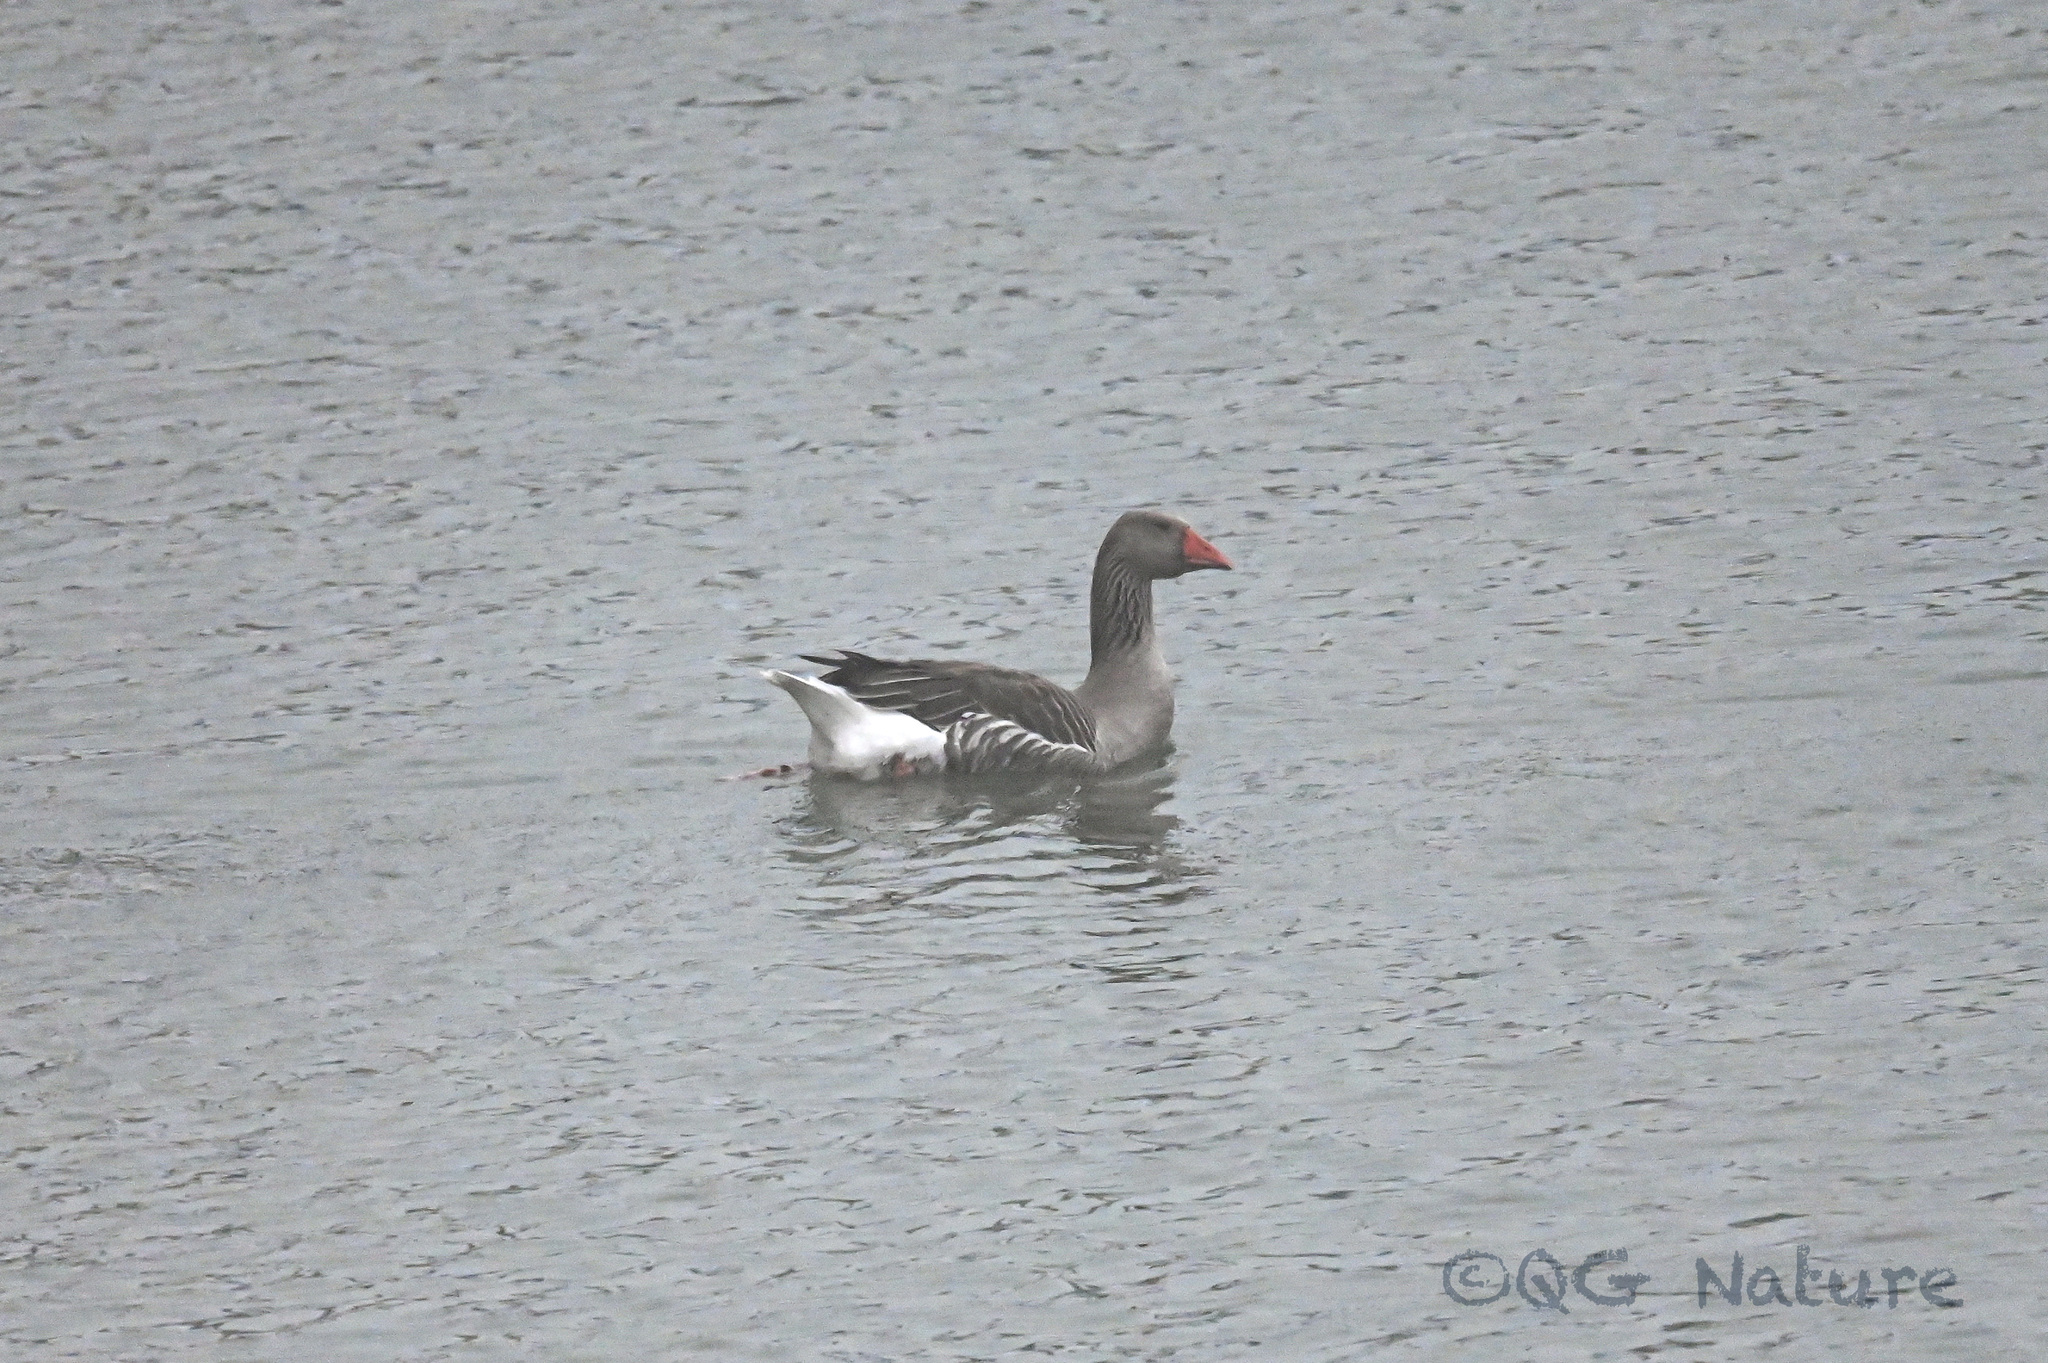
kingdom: Animalia
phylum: Chordata
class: Aves
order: Anseriformes
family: Anatidae
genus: Anser
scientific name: Anser anser
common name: Greylag goose
